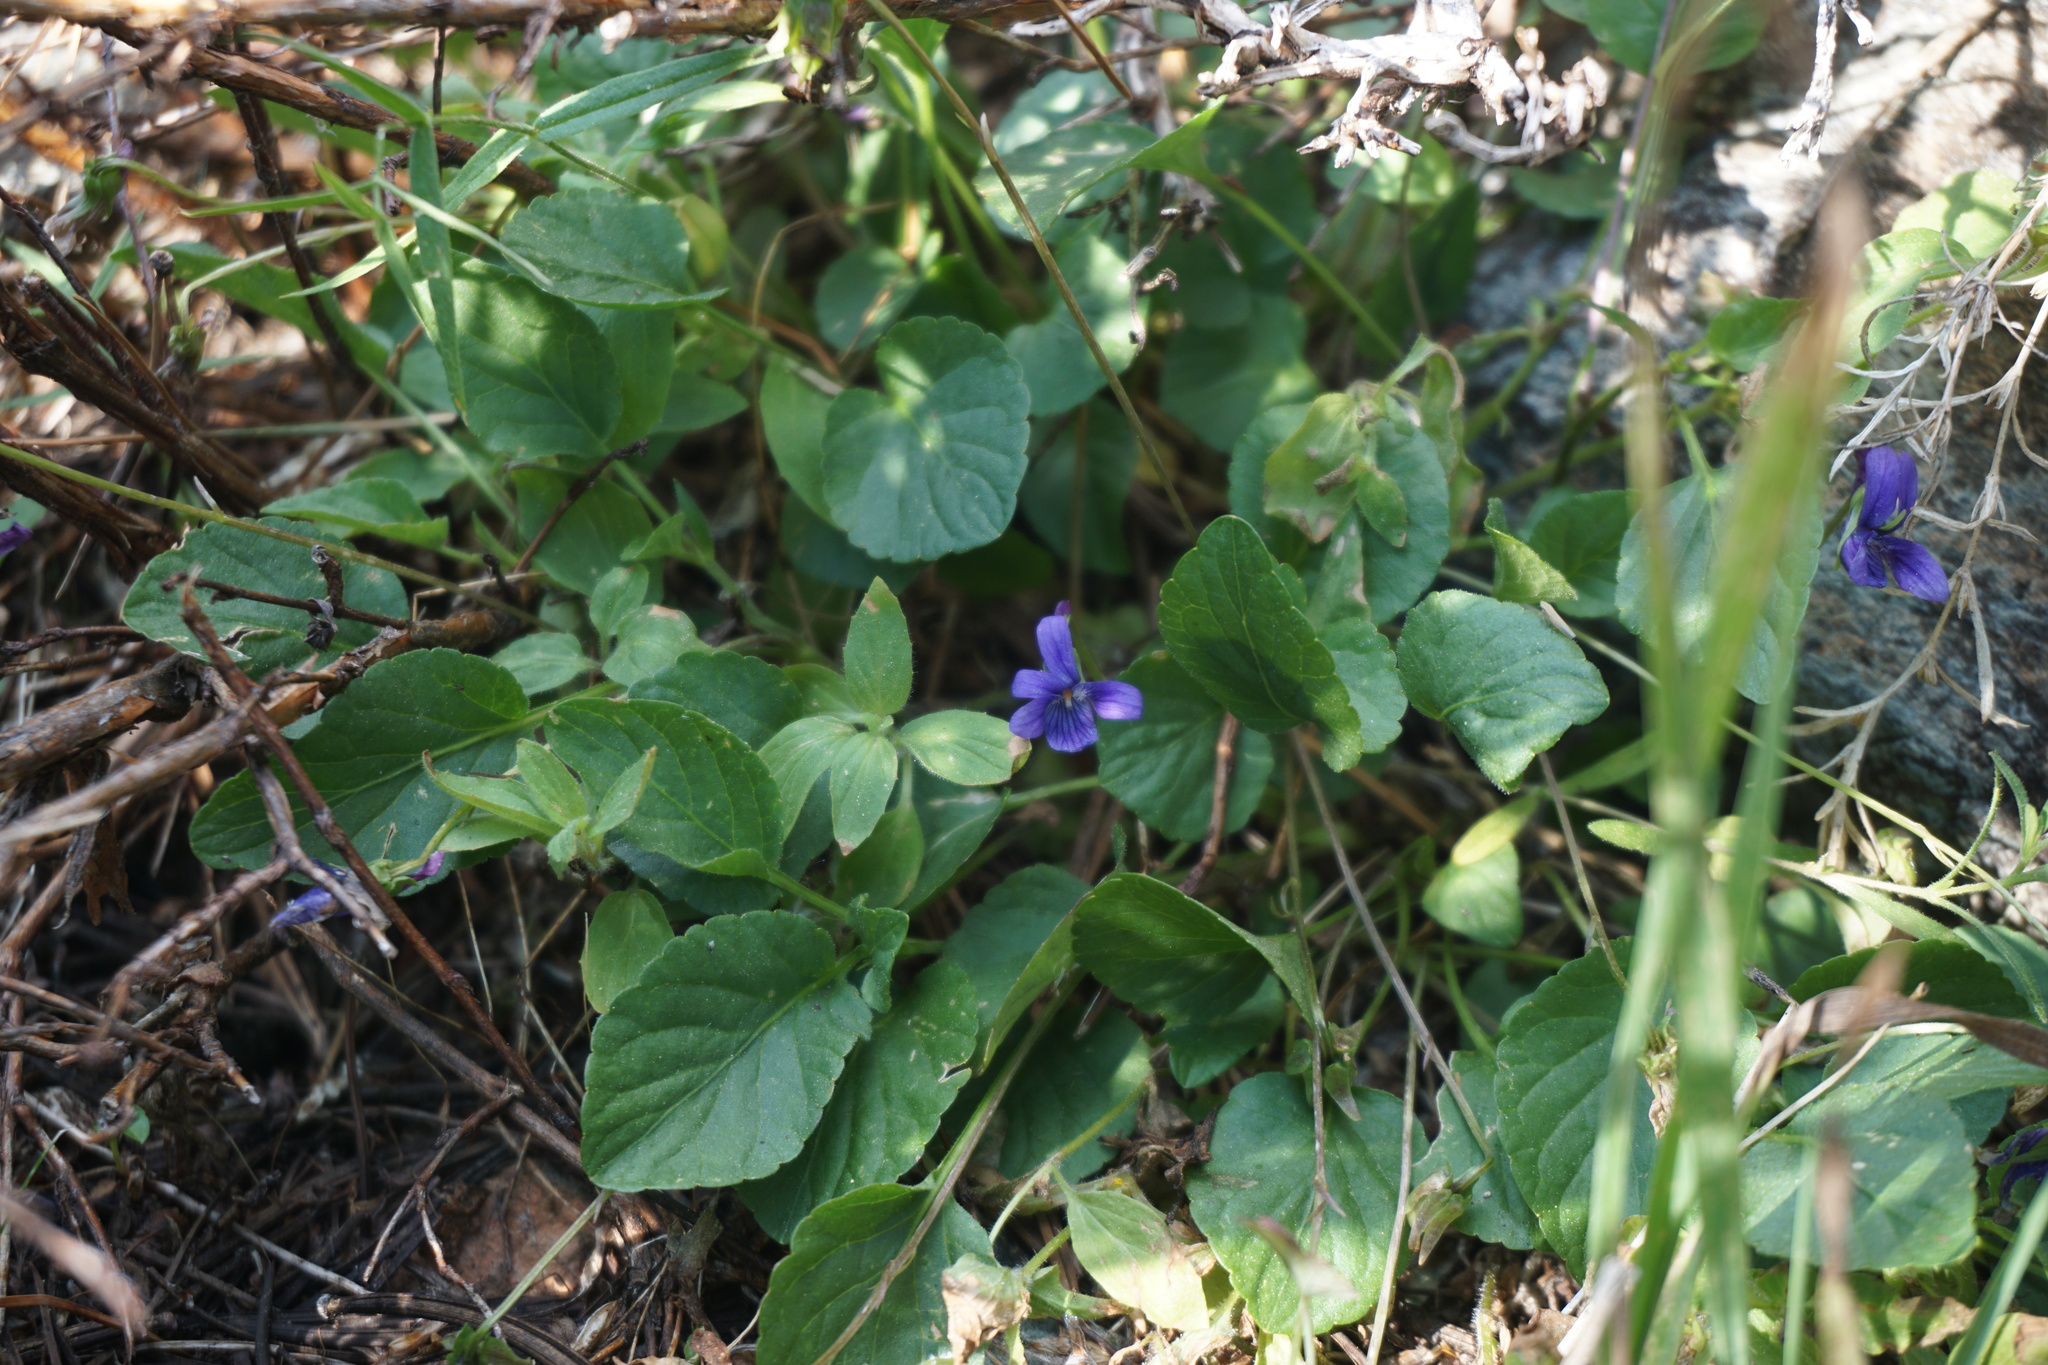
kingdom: Plantae
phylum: Tracheophyta
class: Magnoliopsida
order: Malpighiales
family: Violaceae
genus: Viola
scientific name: Viola adunca
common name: Sand violet
